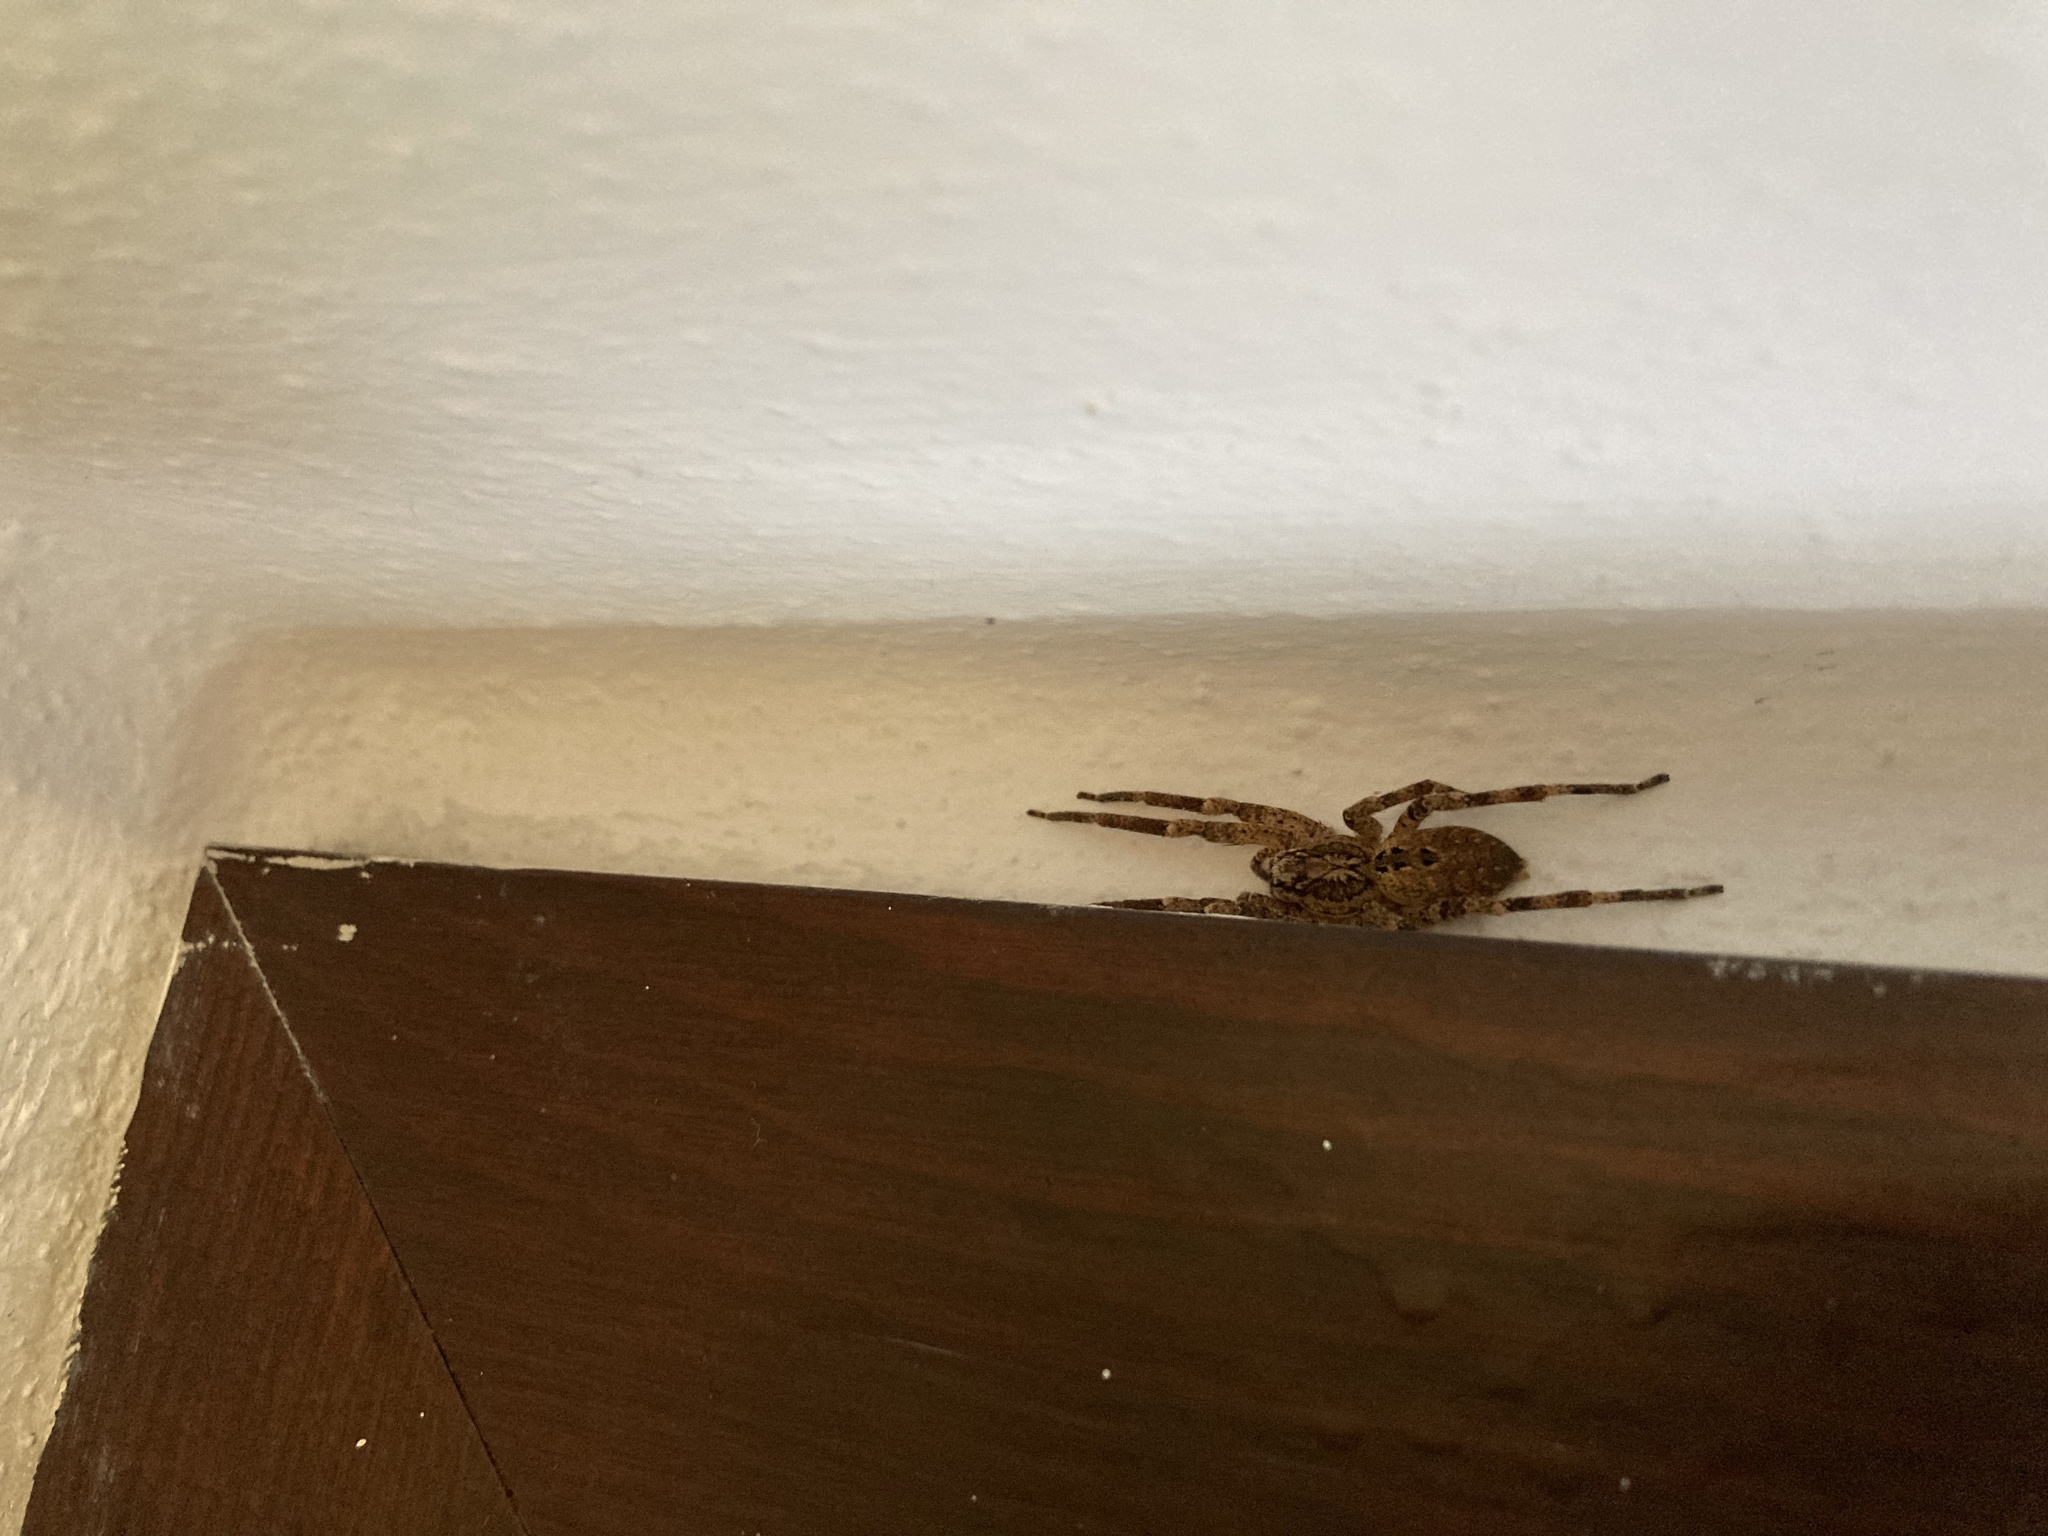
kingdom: Animalia
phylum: Arthropoda
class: Arachnida
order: Araneae
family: Zoropsidae
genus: Zoropsis
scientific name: Zoropsis spinimana
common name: Zoropsid spider
